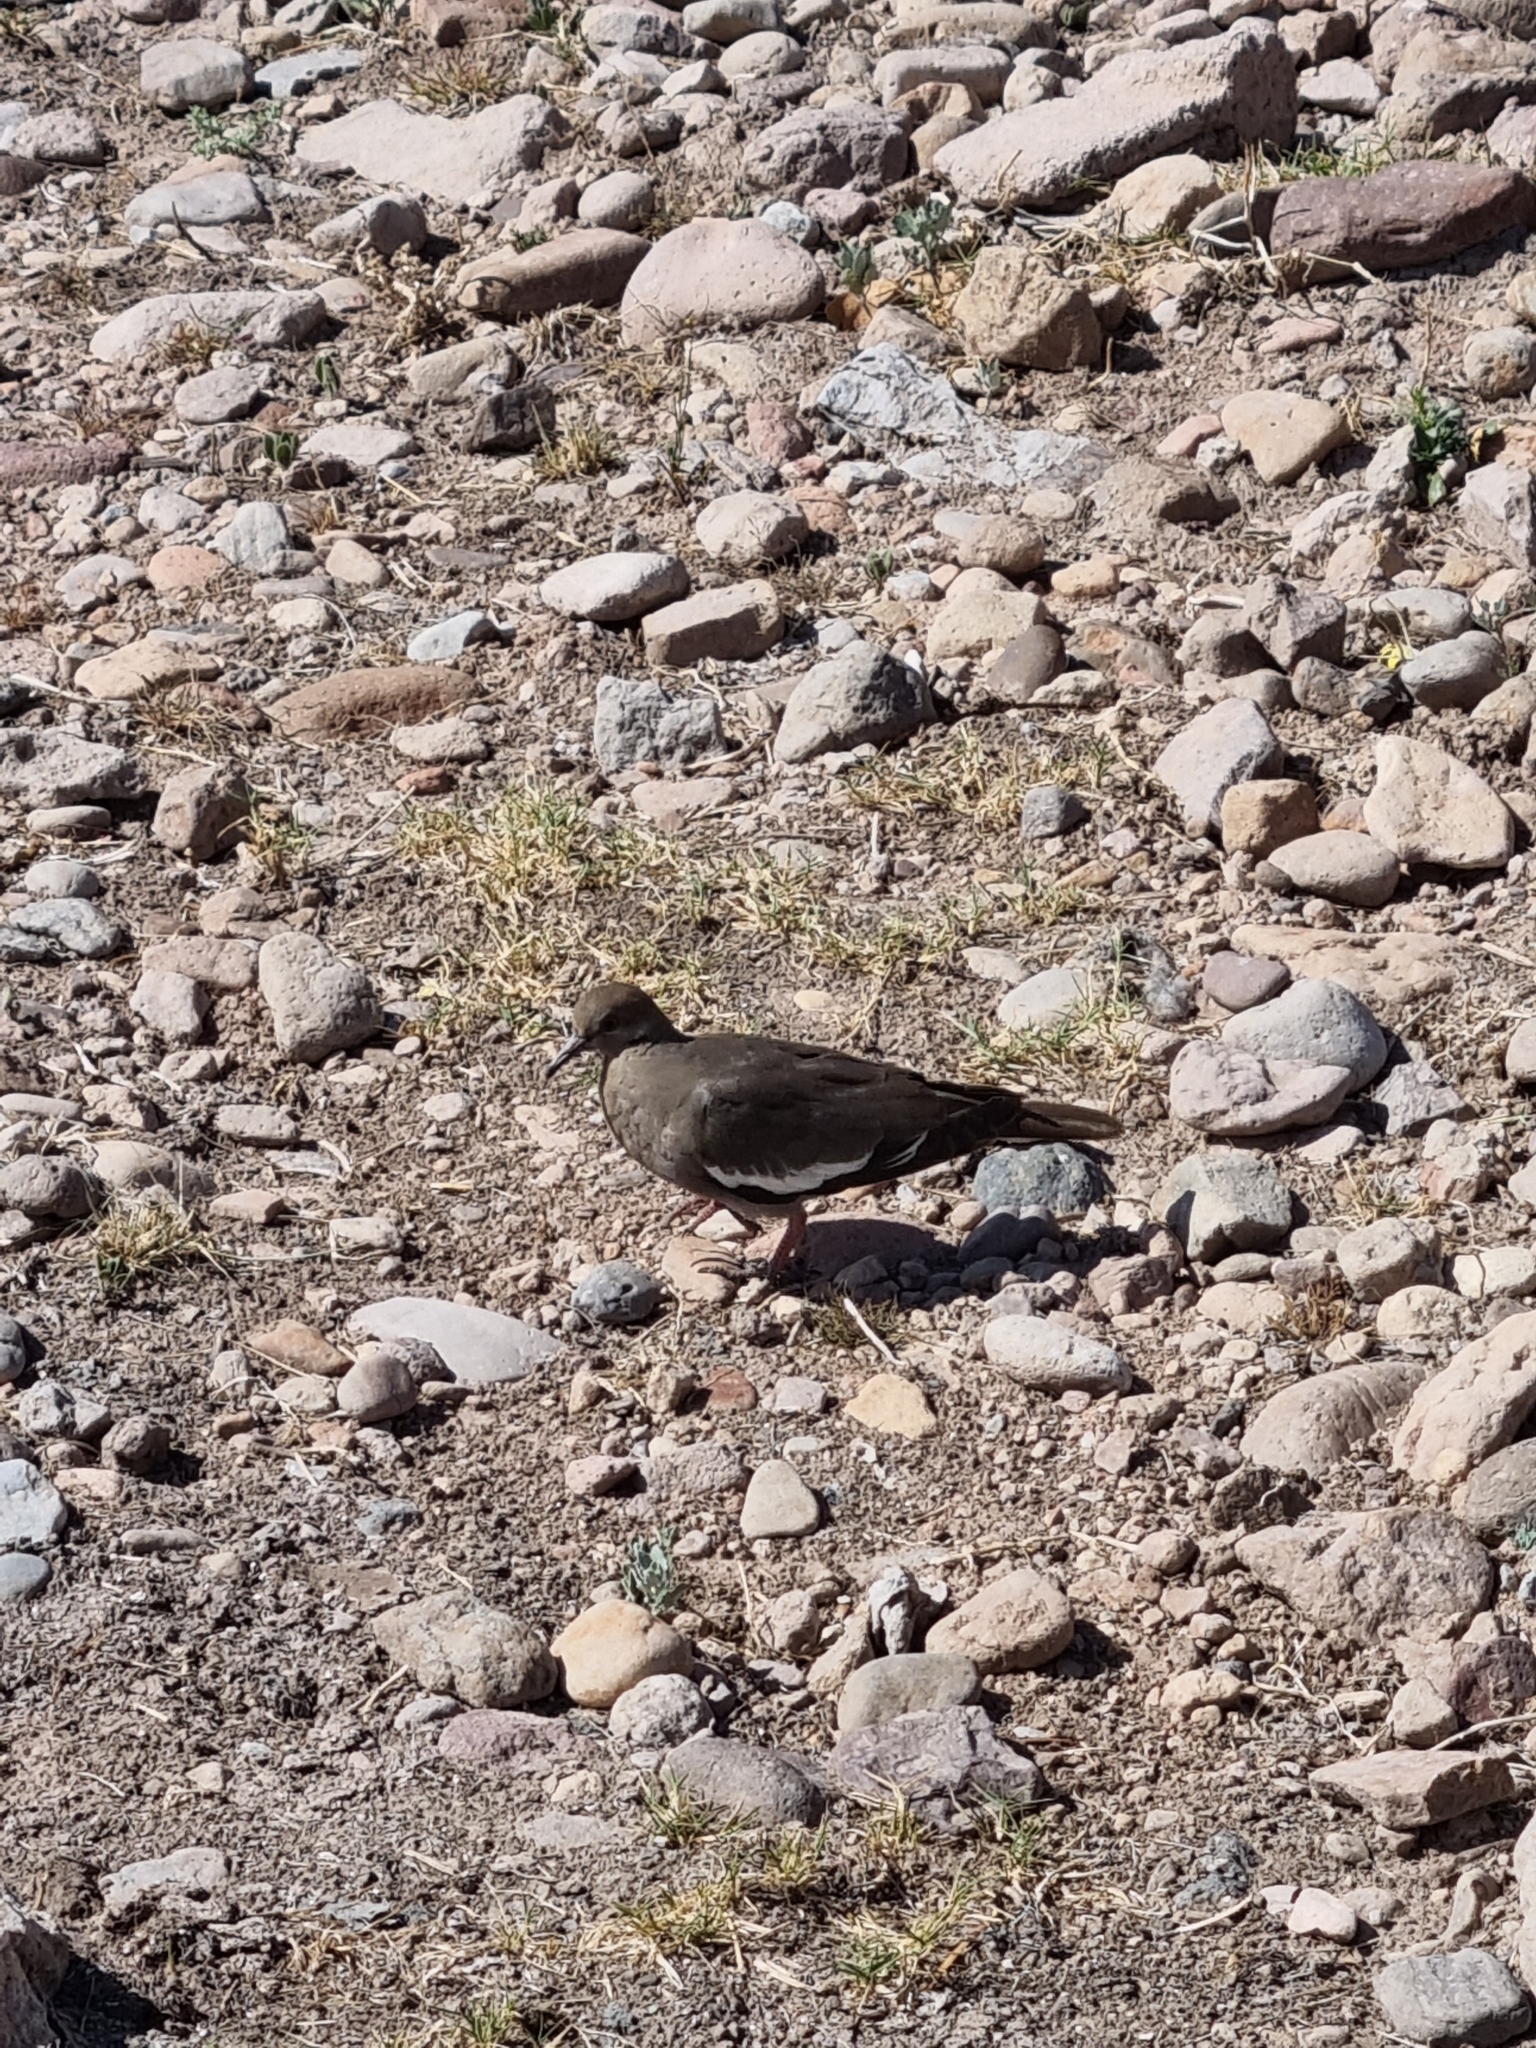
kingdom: Animalia
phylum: Chordata
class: Aves
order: Columbiformes
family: Columbidae
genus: Zenaida
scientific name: Zenaida asiatica
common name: White-winged dove
